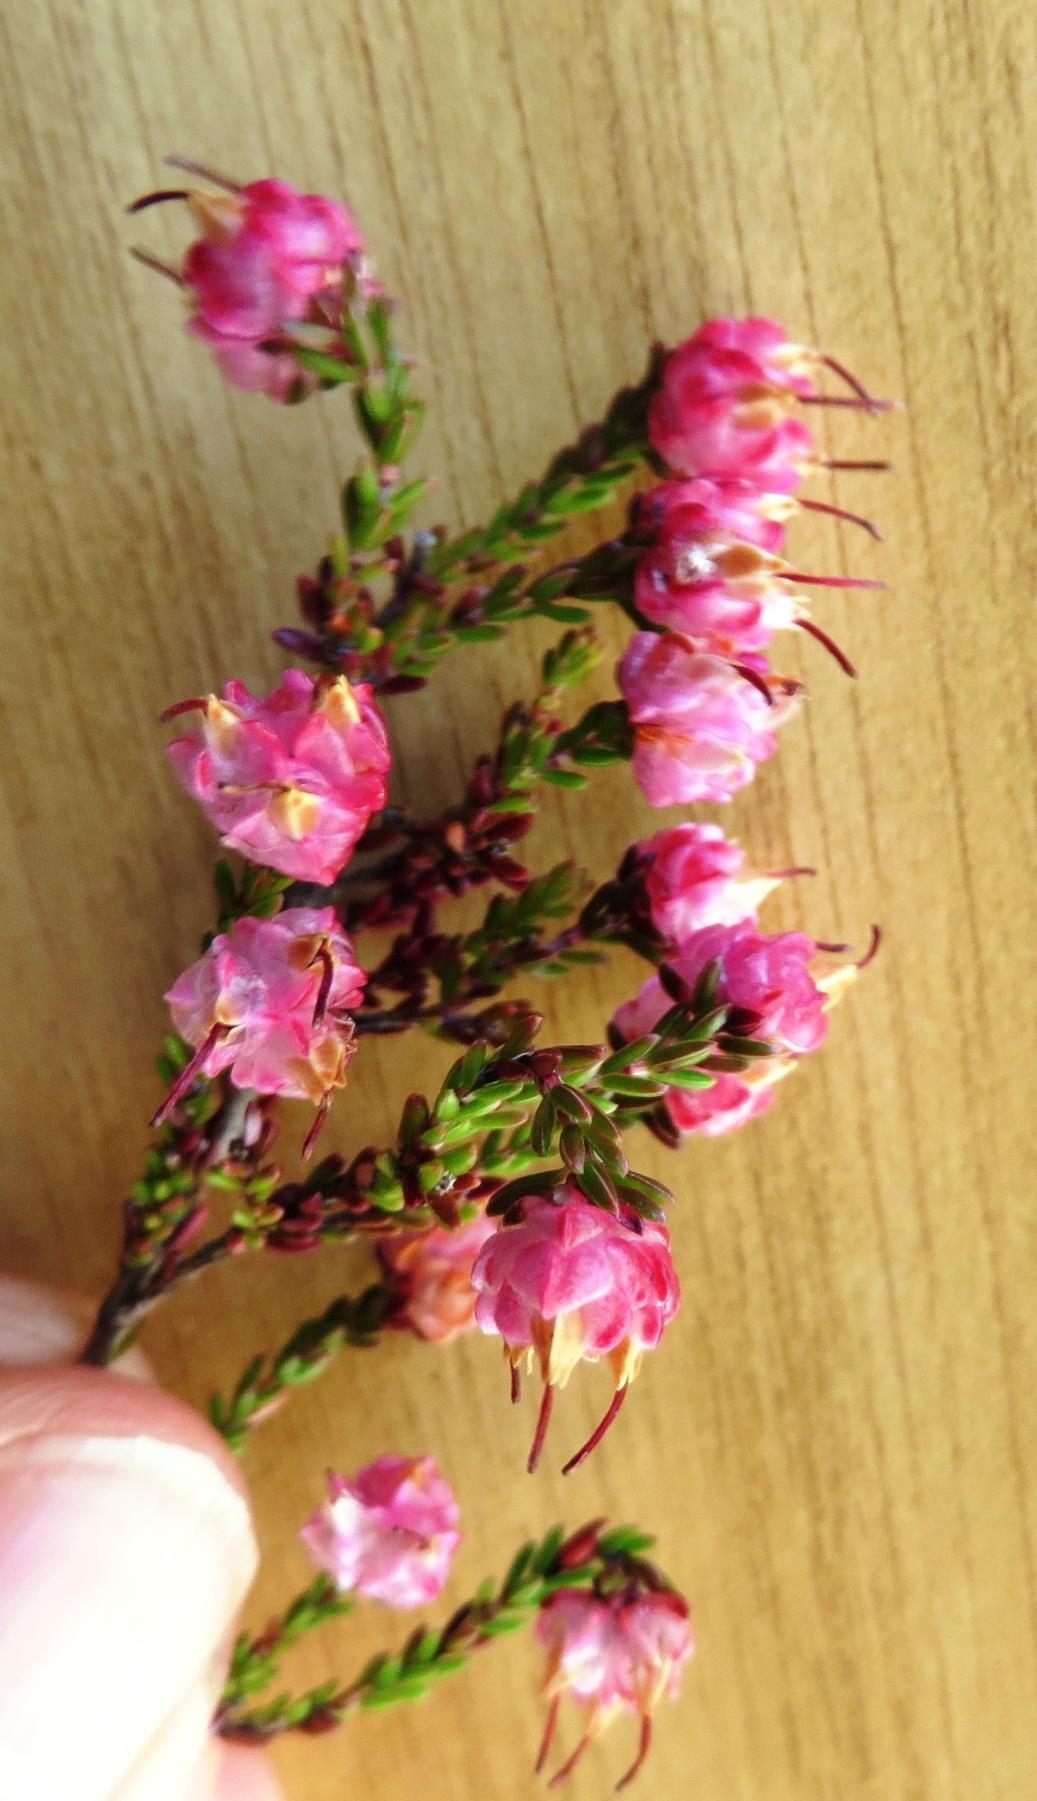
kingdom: Plantae
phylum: Tracheophyta
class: Magnoliopsida
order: Ericales
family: Ericaceae
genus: Erica
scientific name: Erica spumosa
